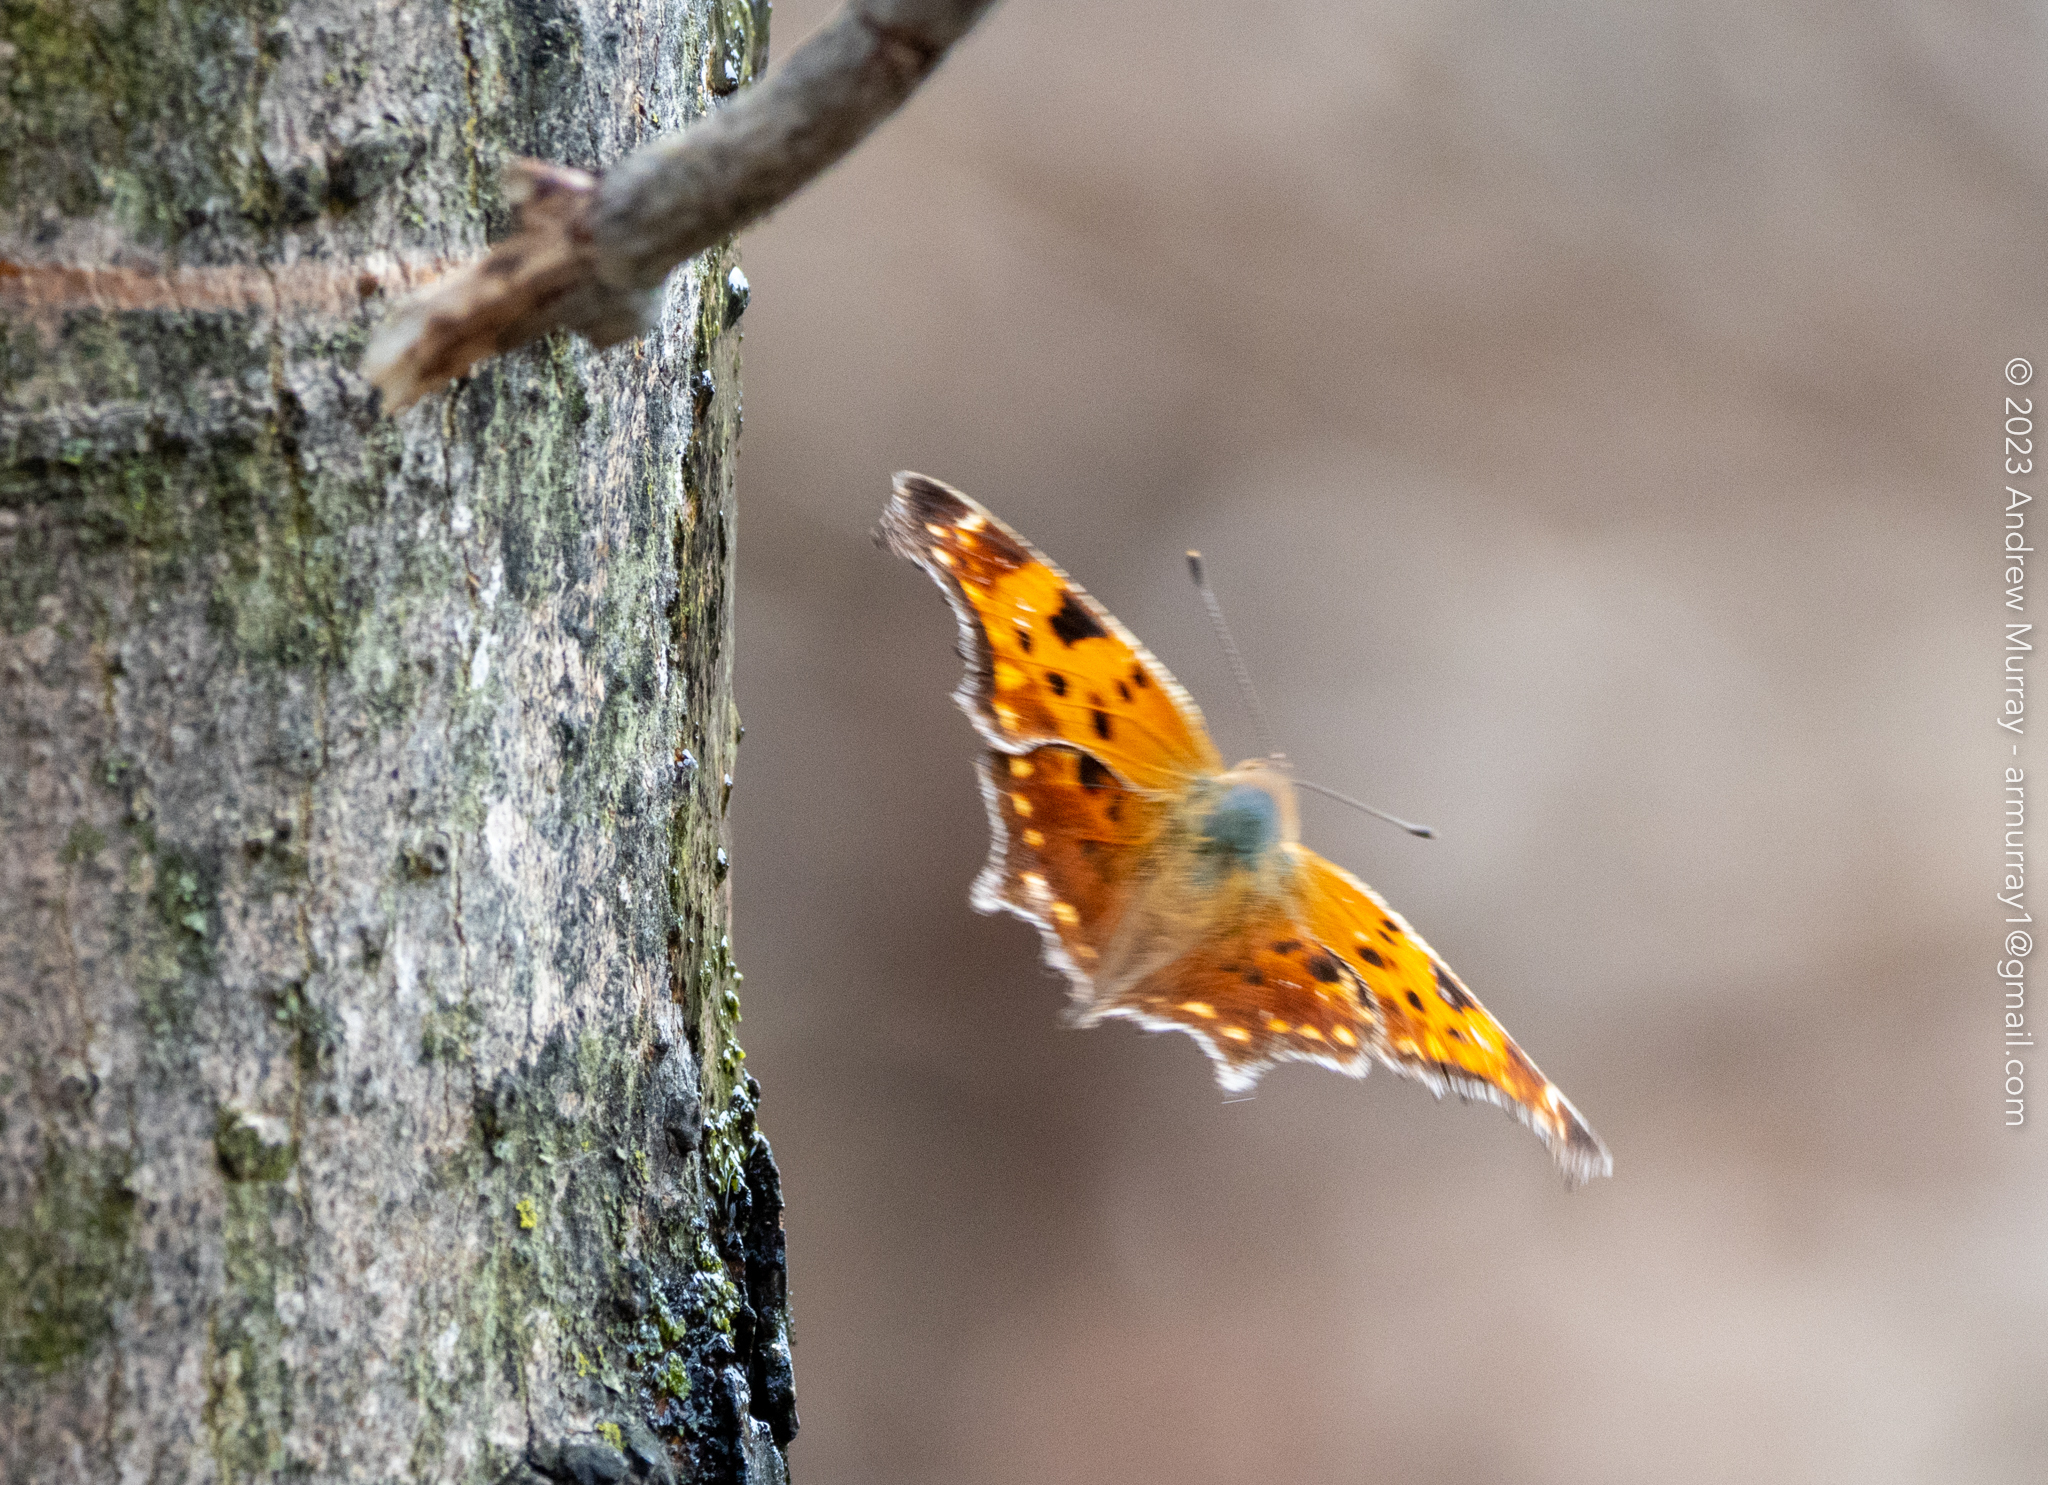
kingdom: Animalia
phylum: Arthropoda
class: Insecta
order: Lepidoptera
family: Nymphalidae
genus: Polygonia
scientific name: Polygonia comma
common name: Eastern comma
